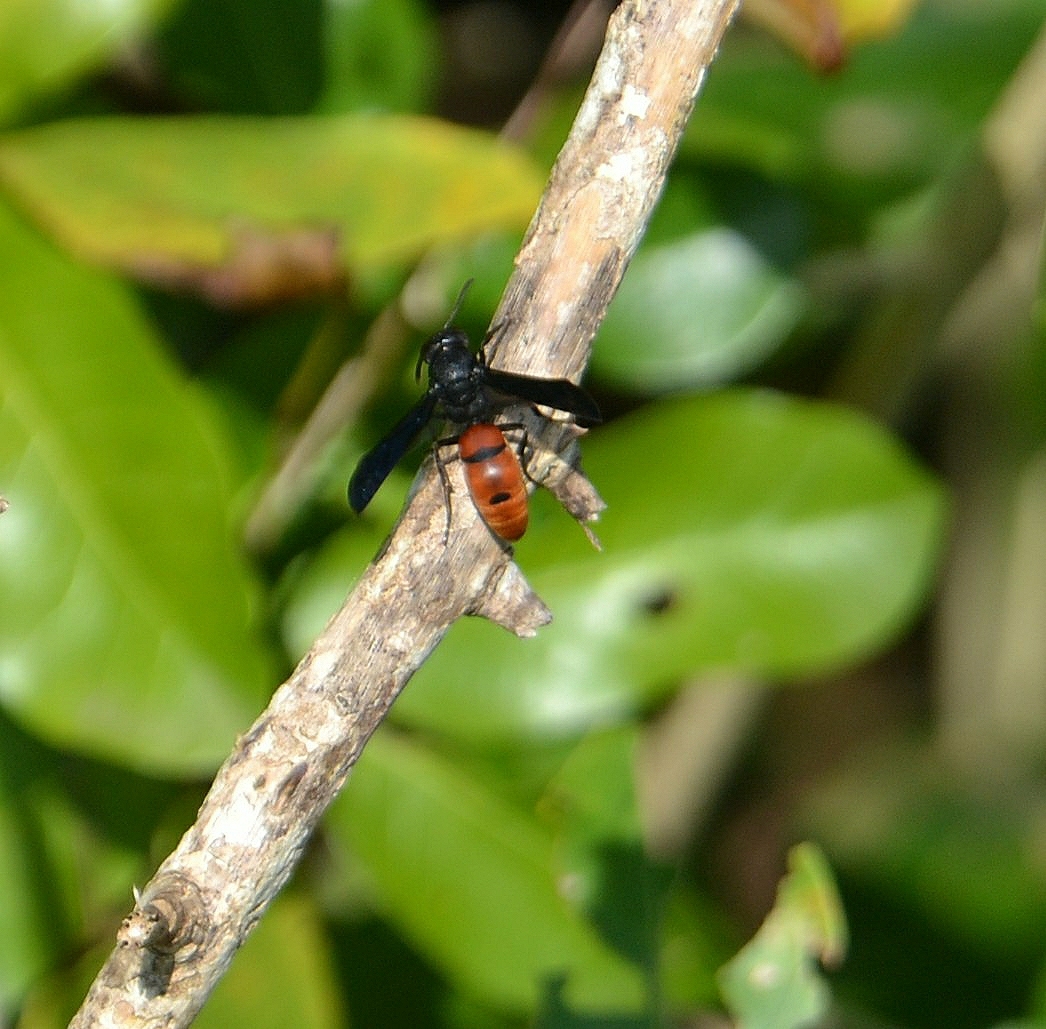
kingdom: Animalia
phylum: Arthropoda
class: Insecta
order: Hymenoptera
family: Eumenidae
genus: Anterhynchium
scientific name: Anterhynchium abdominale
